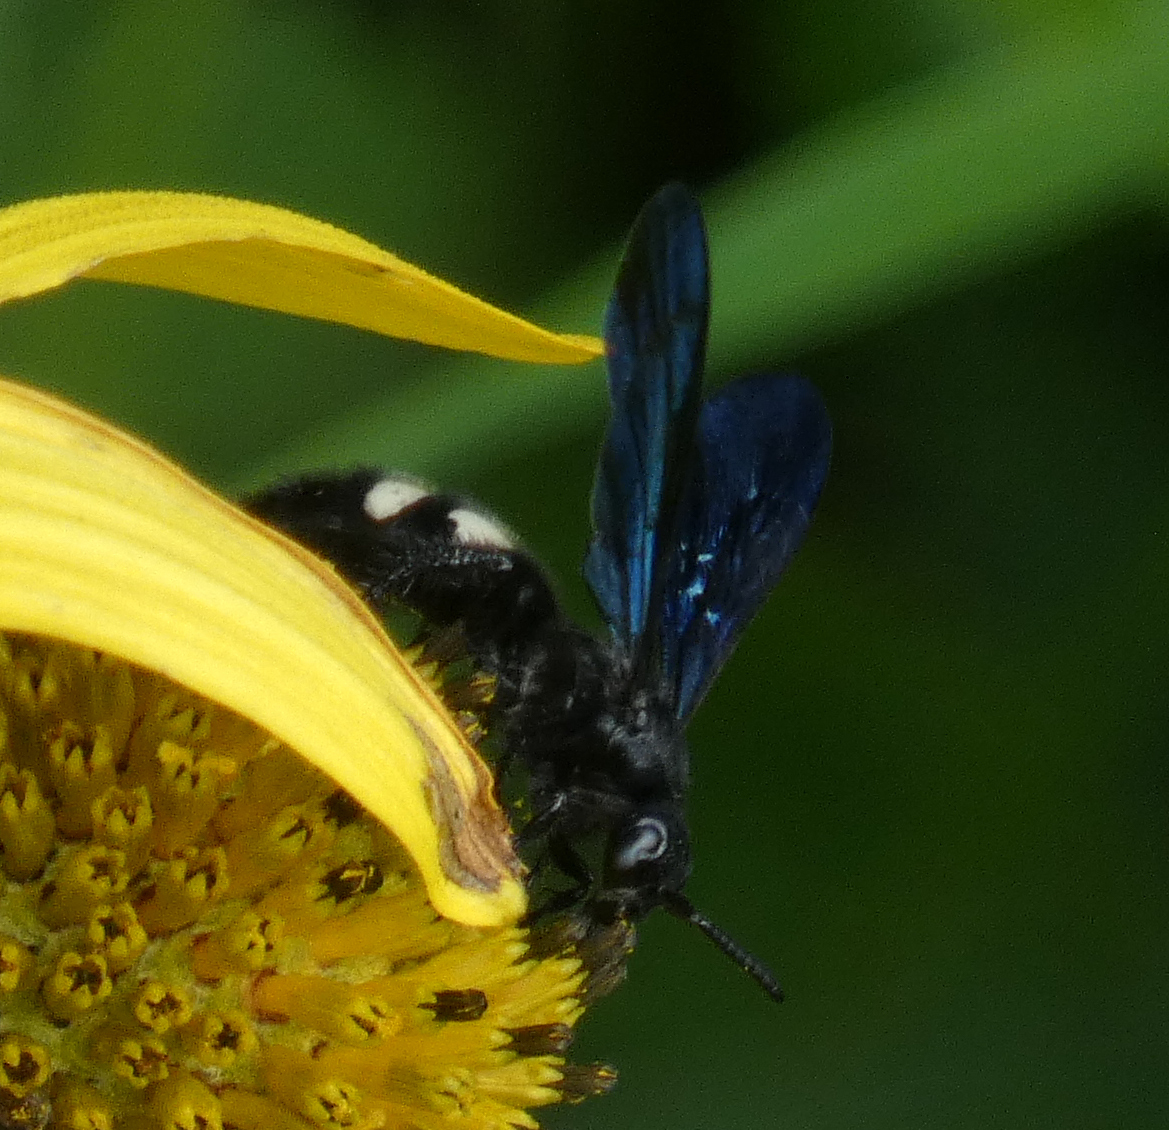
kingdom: Animalia
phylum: Arthropoda
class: Insecta
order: Hymenoptera
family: Scoliidae
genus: Scolia
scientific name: Scolia bicincta
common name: Double-banded scoliid wasp
